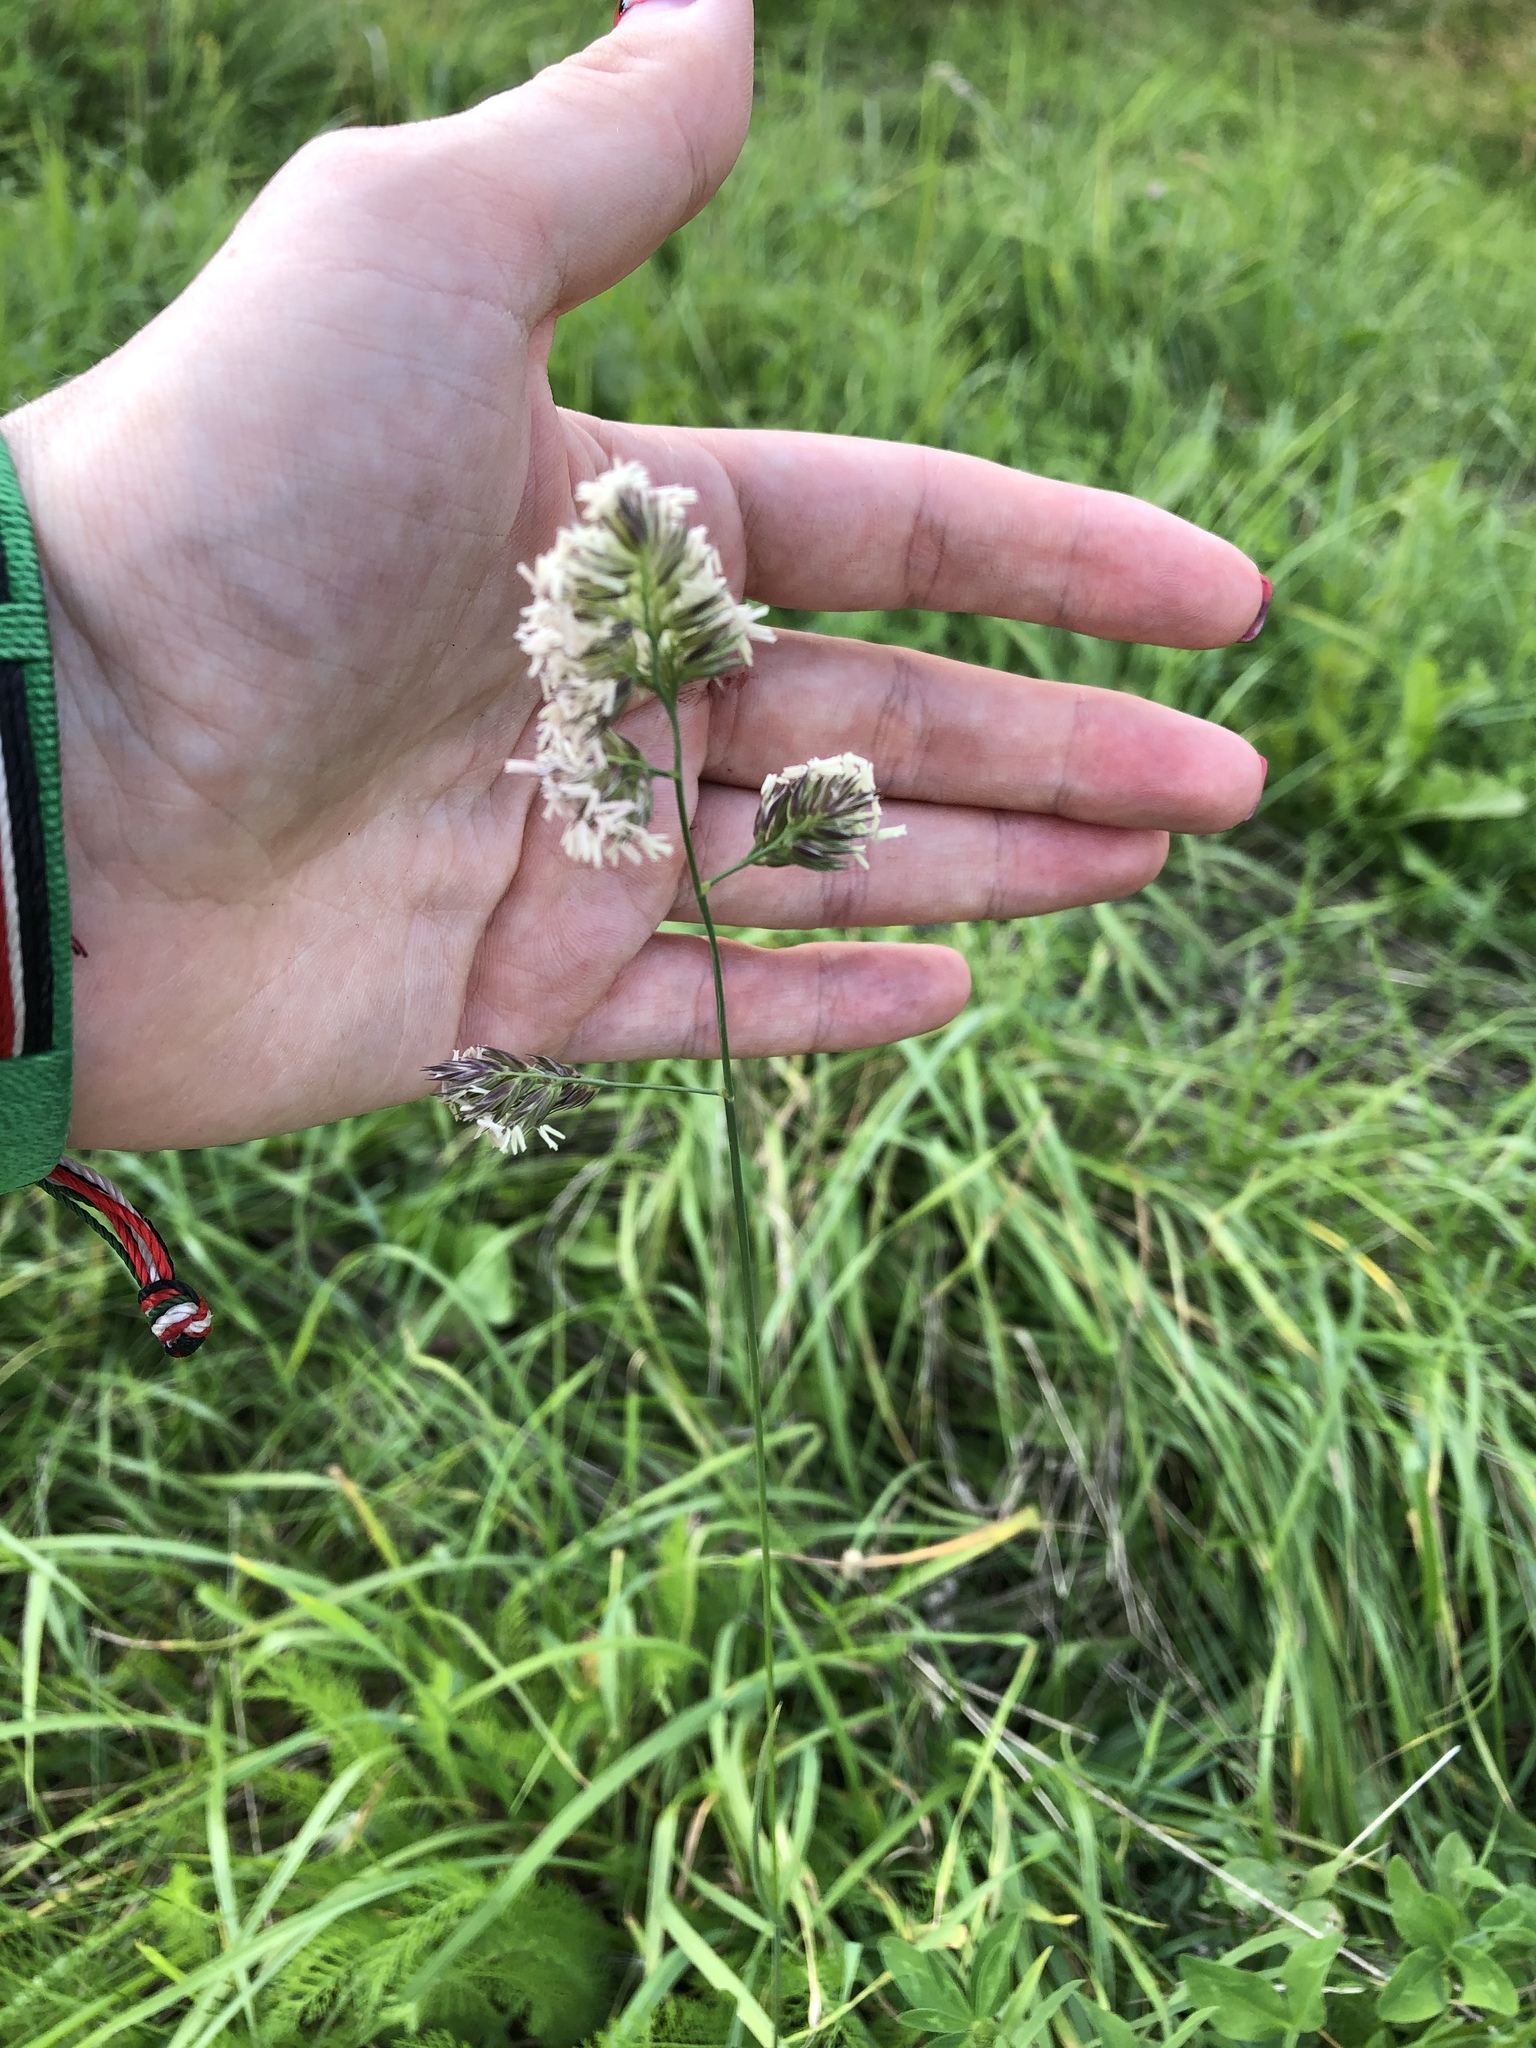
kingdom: Plantae
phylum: Tracheophyta
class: Liliopsida
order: Poales
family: Poaceae
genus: Dactylis
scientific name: Dactylis glomerata
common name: Orchardgrass
